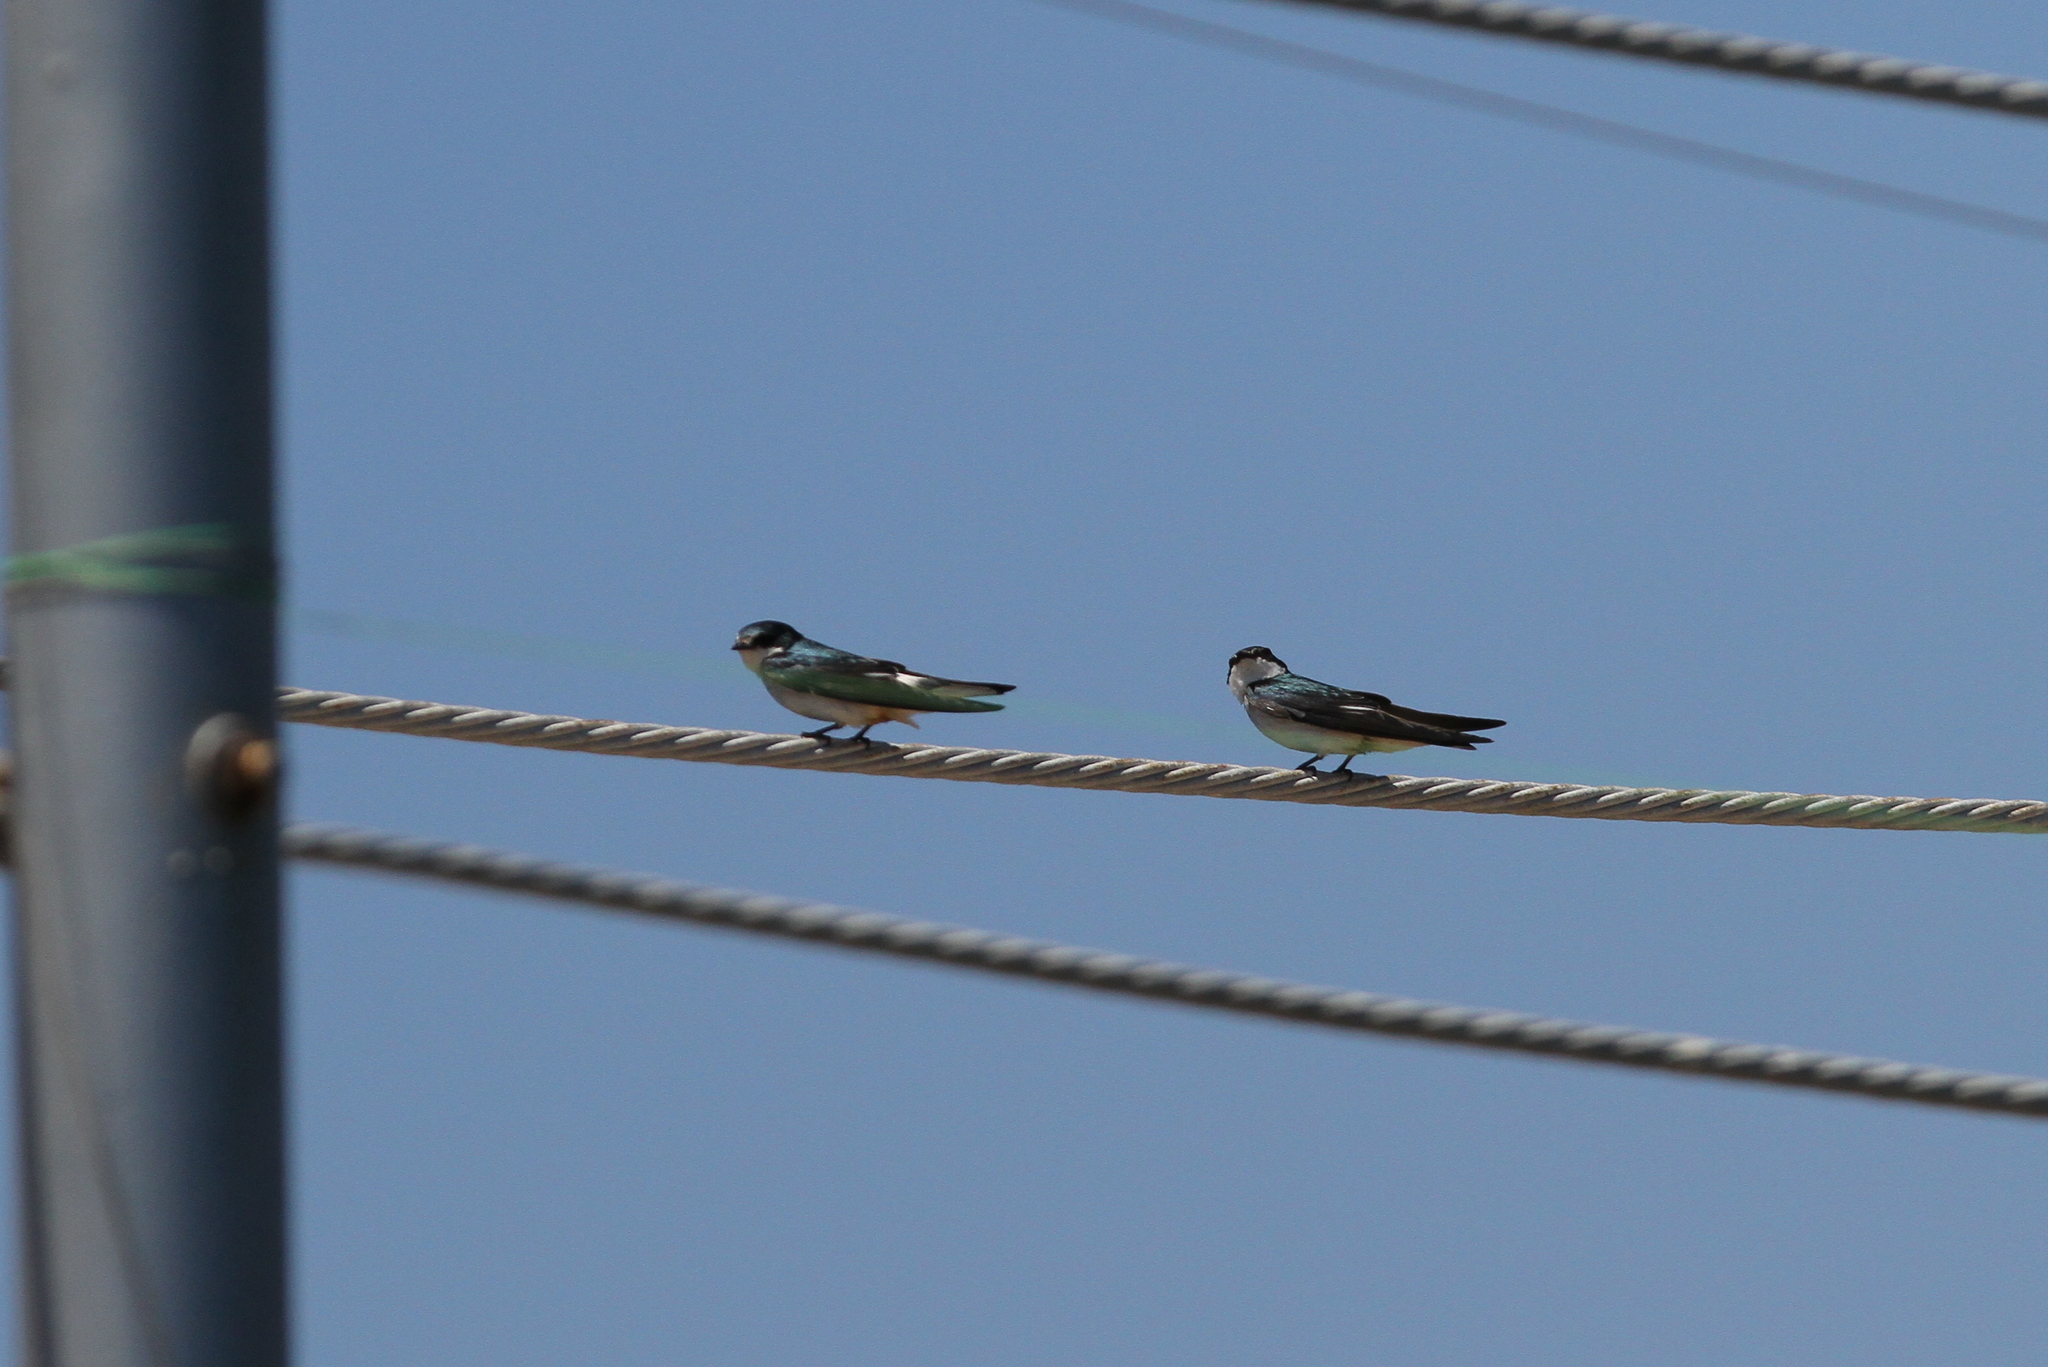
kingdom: Animalia
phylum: Chordata
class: Aves
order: Passeriformes
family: Hirundinidae
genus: Tachycineta
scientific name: Tachycineta albilinea
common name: Mangrove swallow
